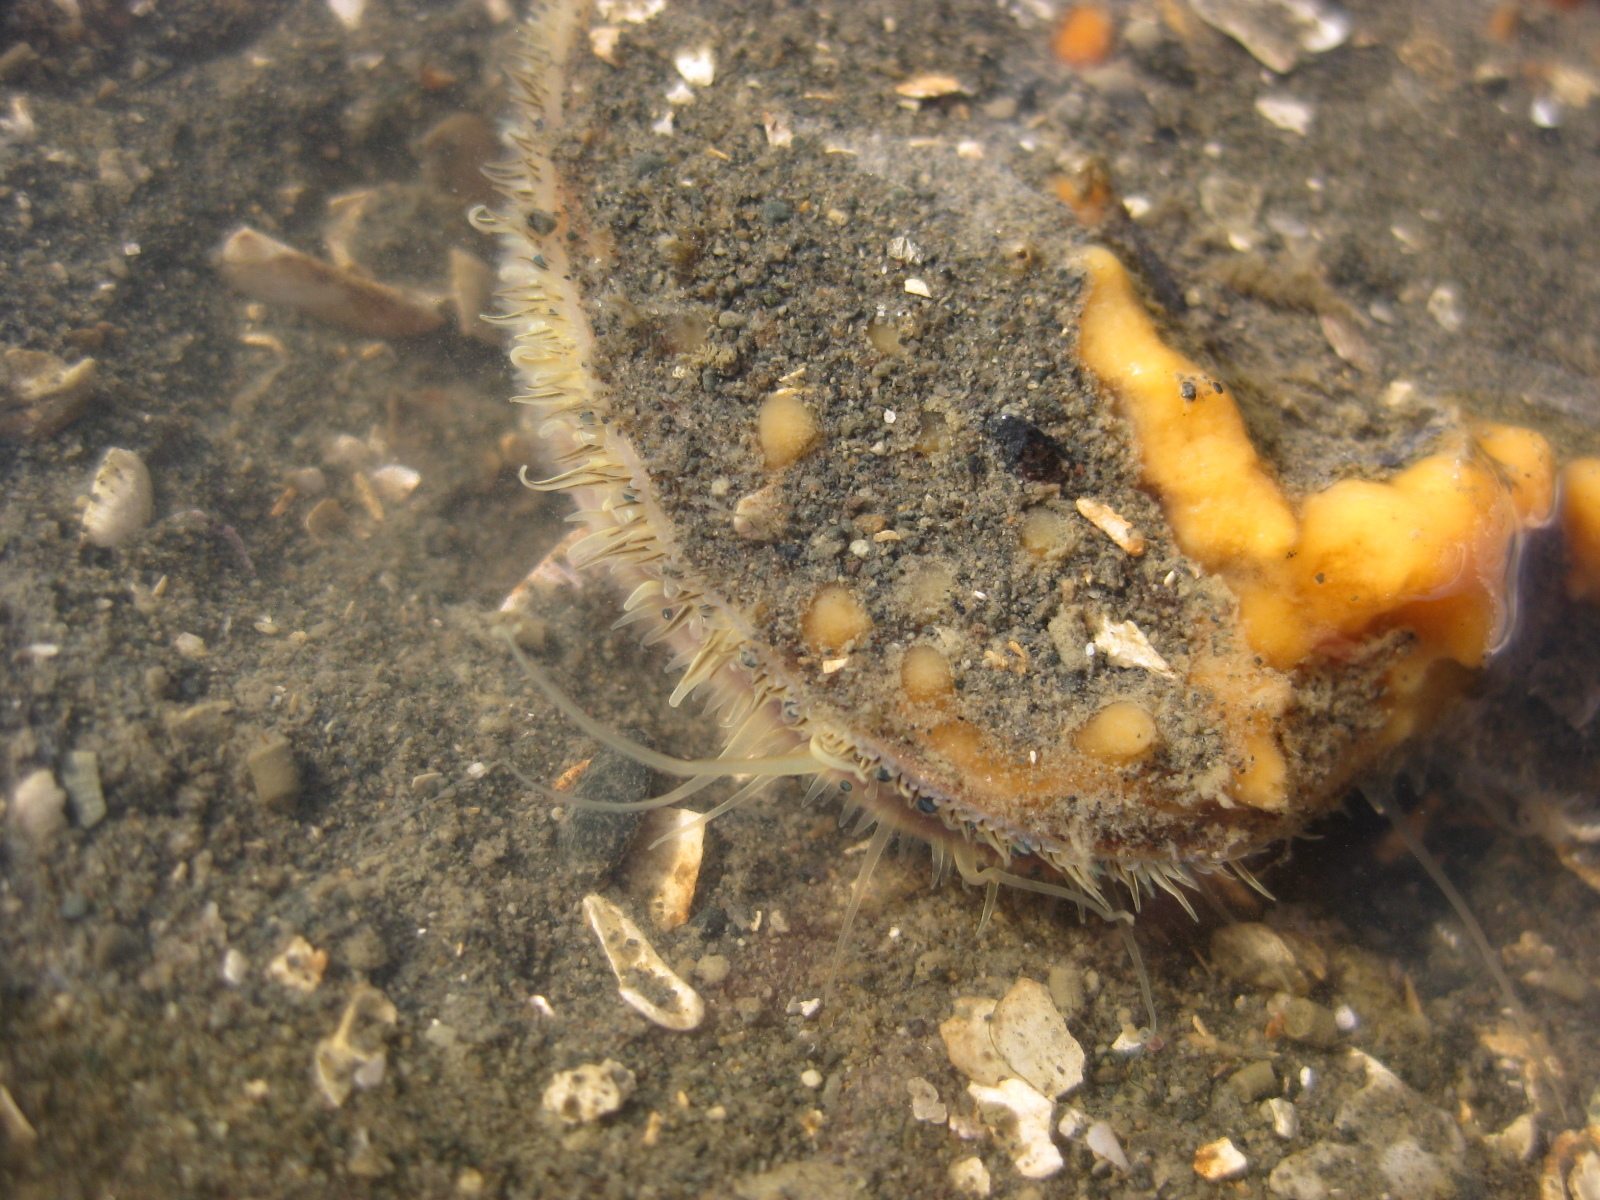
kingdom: Animalia
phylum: Mollusca
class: Bivalvia
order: Pectinida
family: Pectinidae
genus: Pecten
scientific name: Pecten novaezelandiae
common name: New zealand scallop
